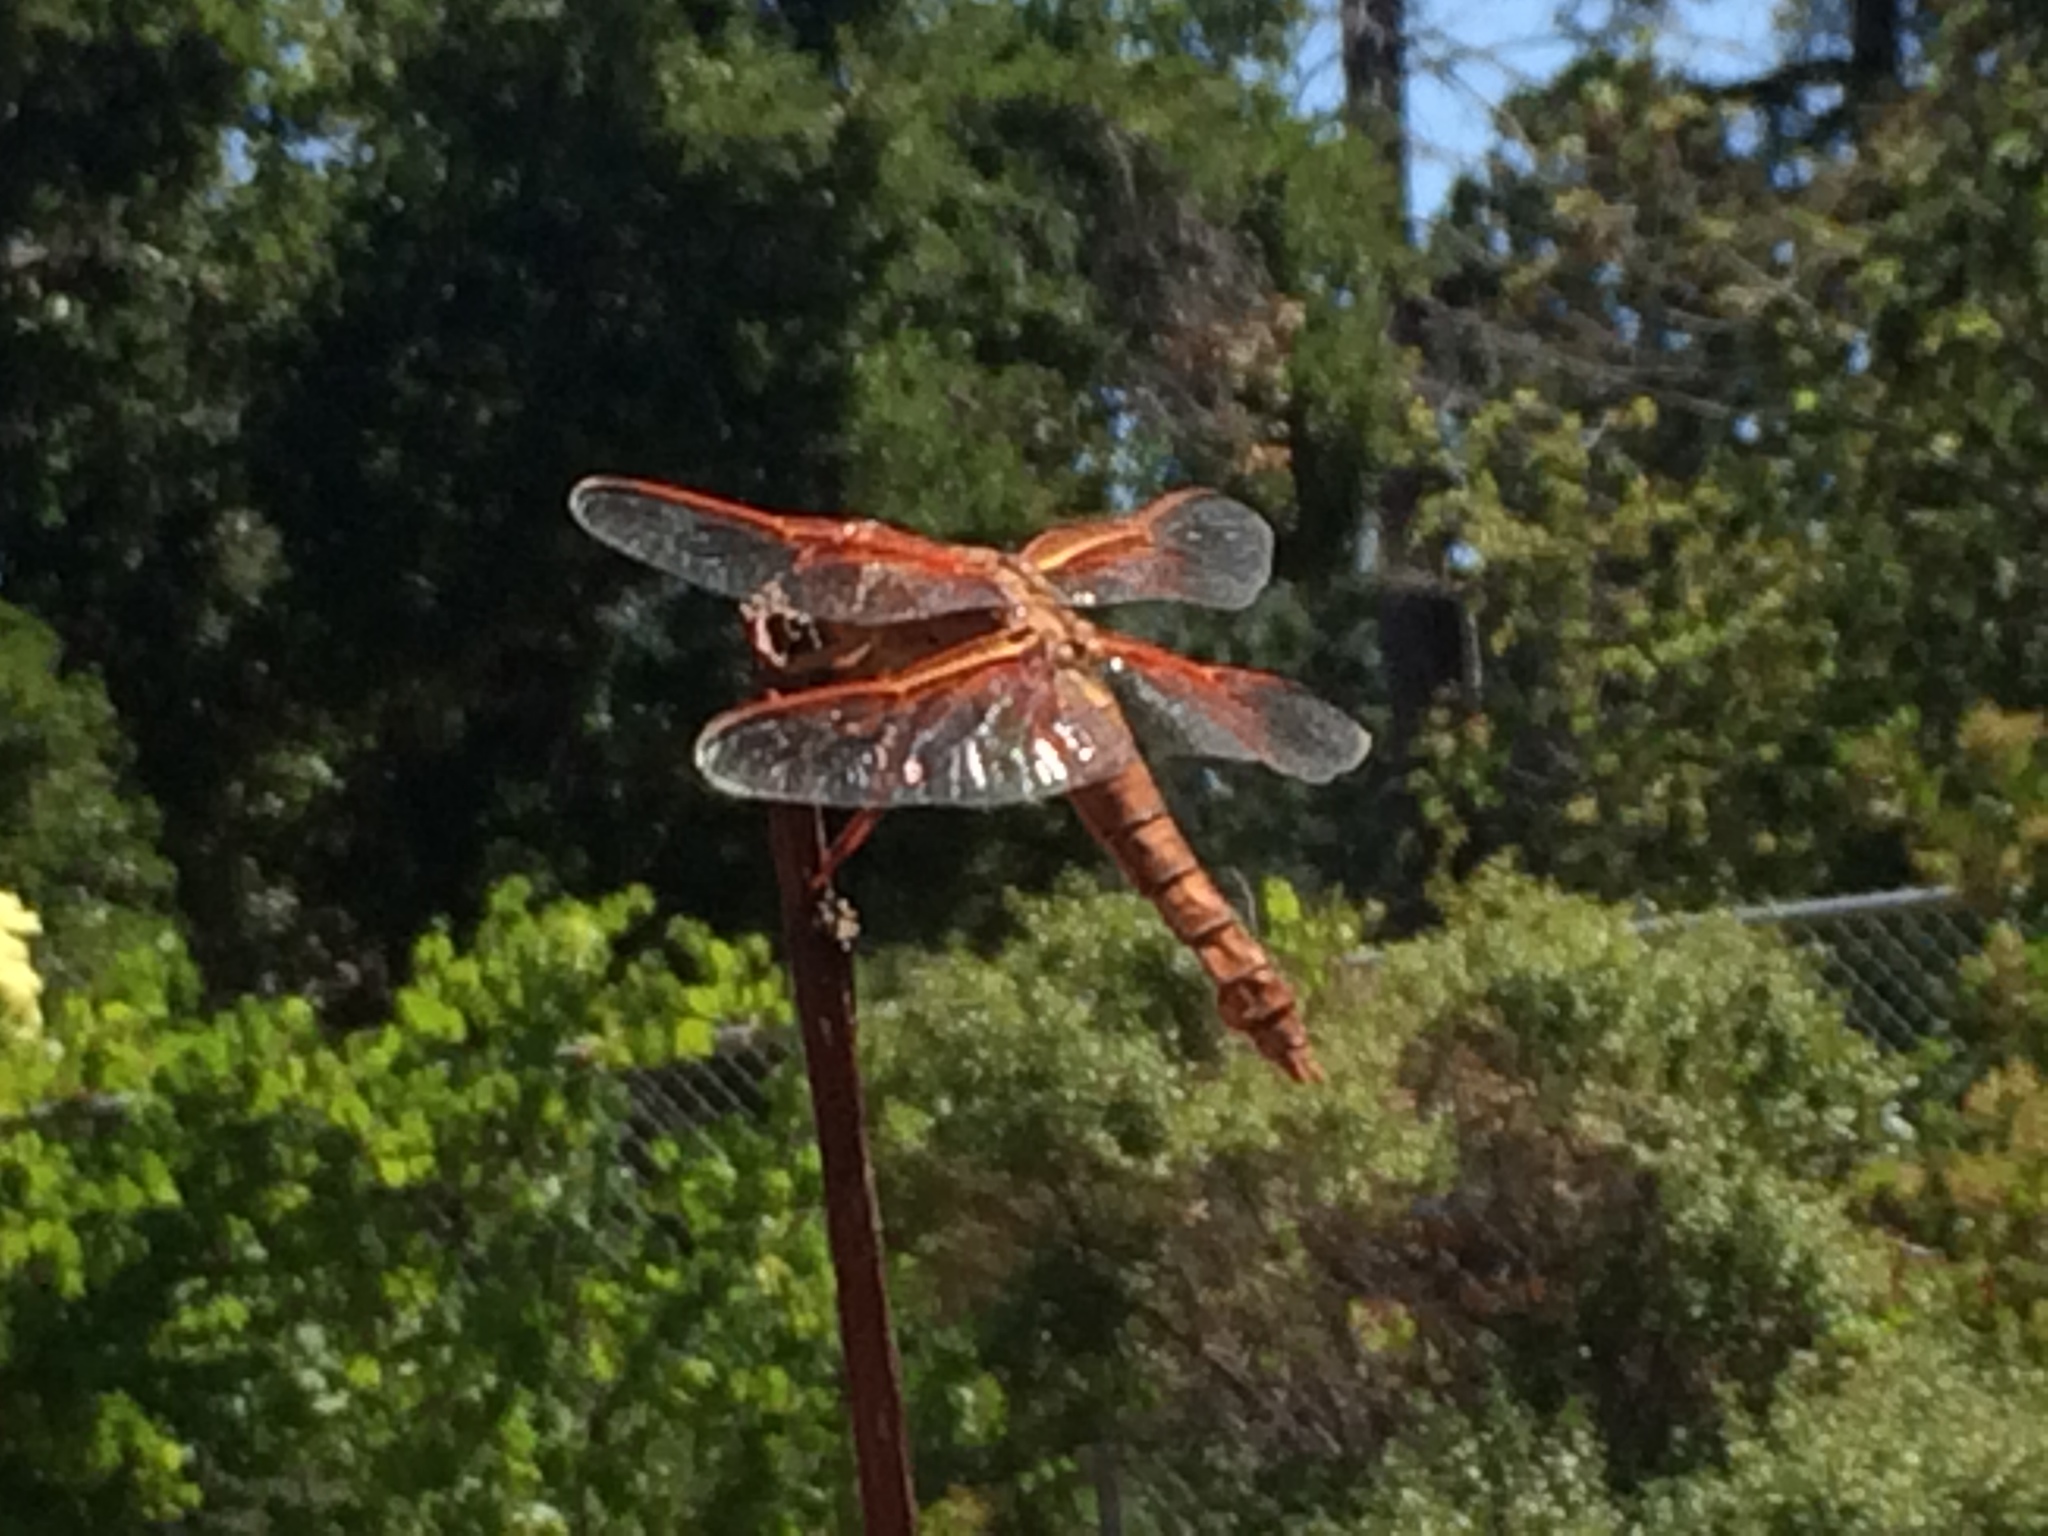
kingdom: Animalia
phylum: Arthropoda
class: Insecta
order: Odonata
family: Libellulidae
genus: Libellula
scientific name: Libellula saturata
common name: Flame skimmer
